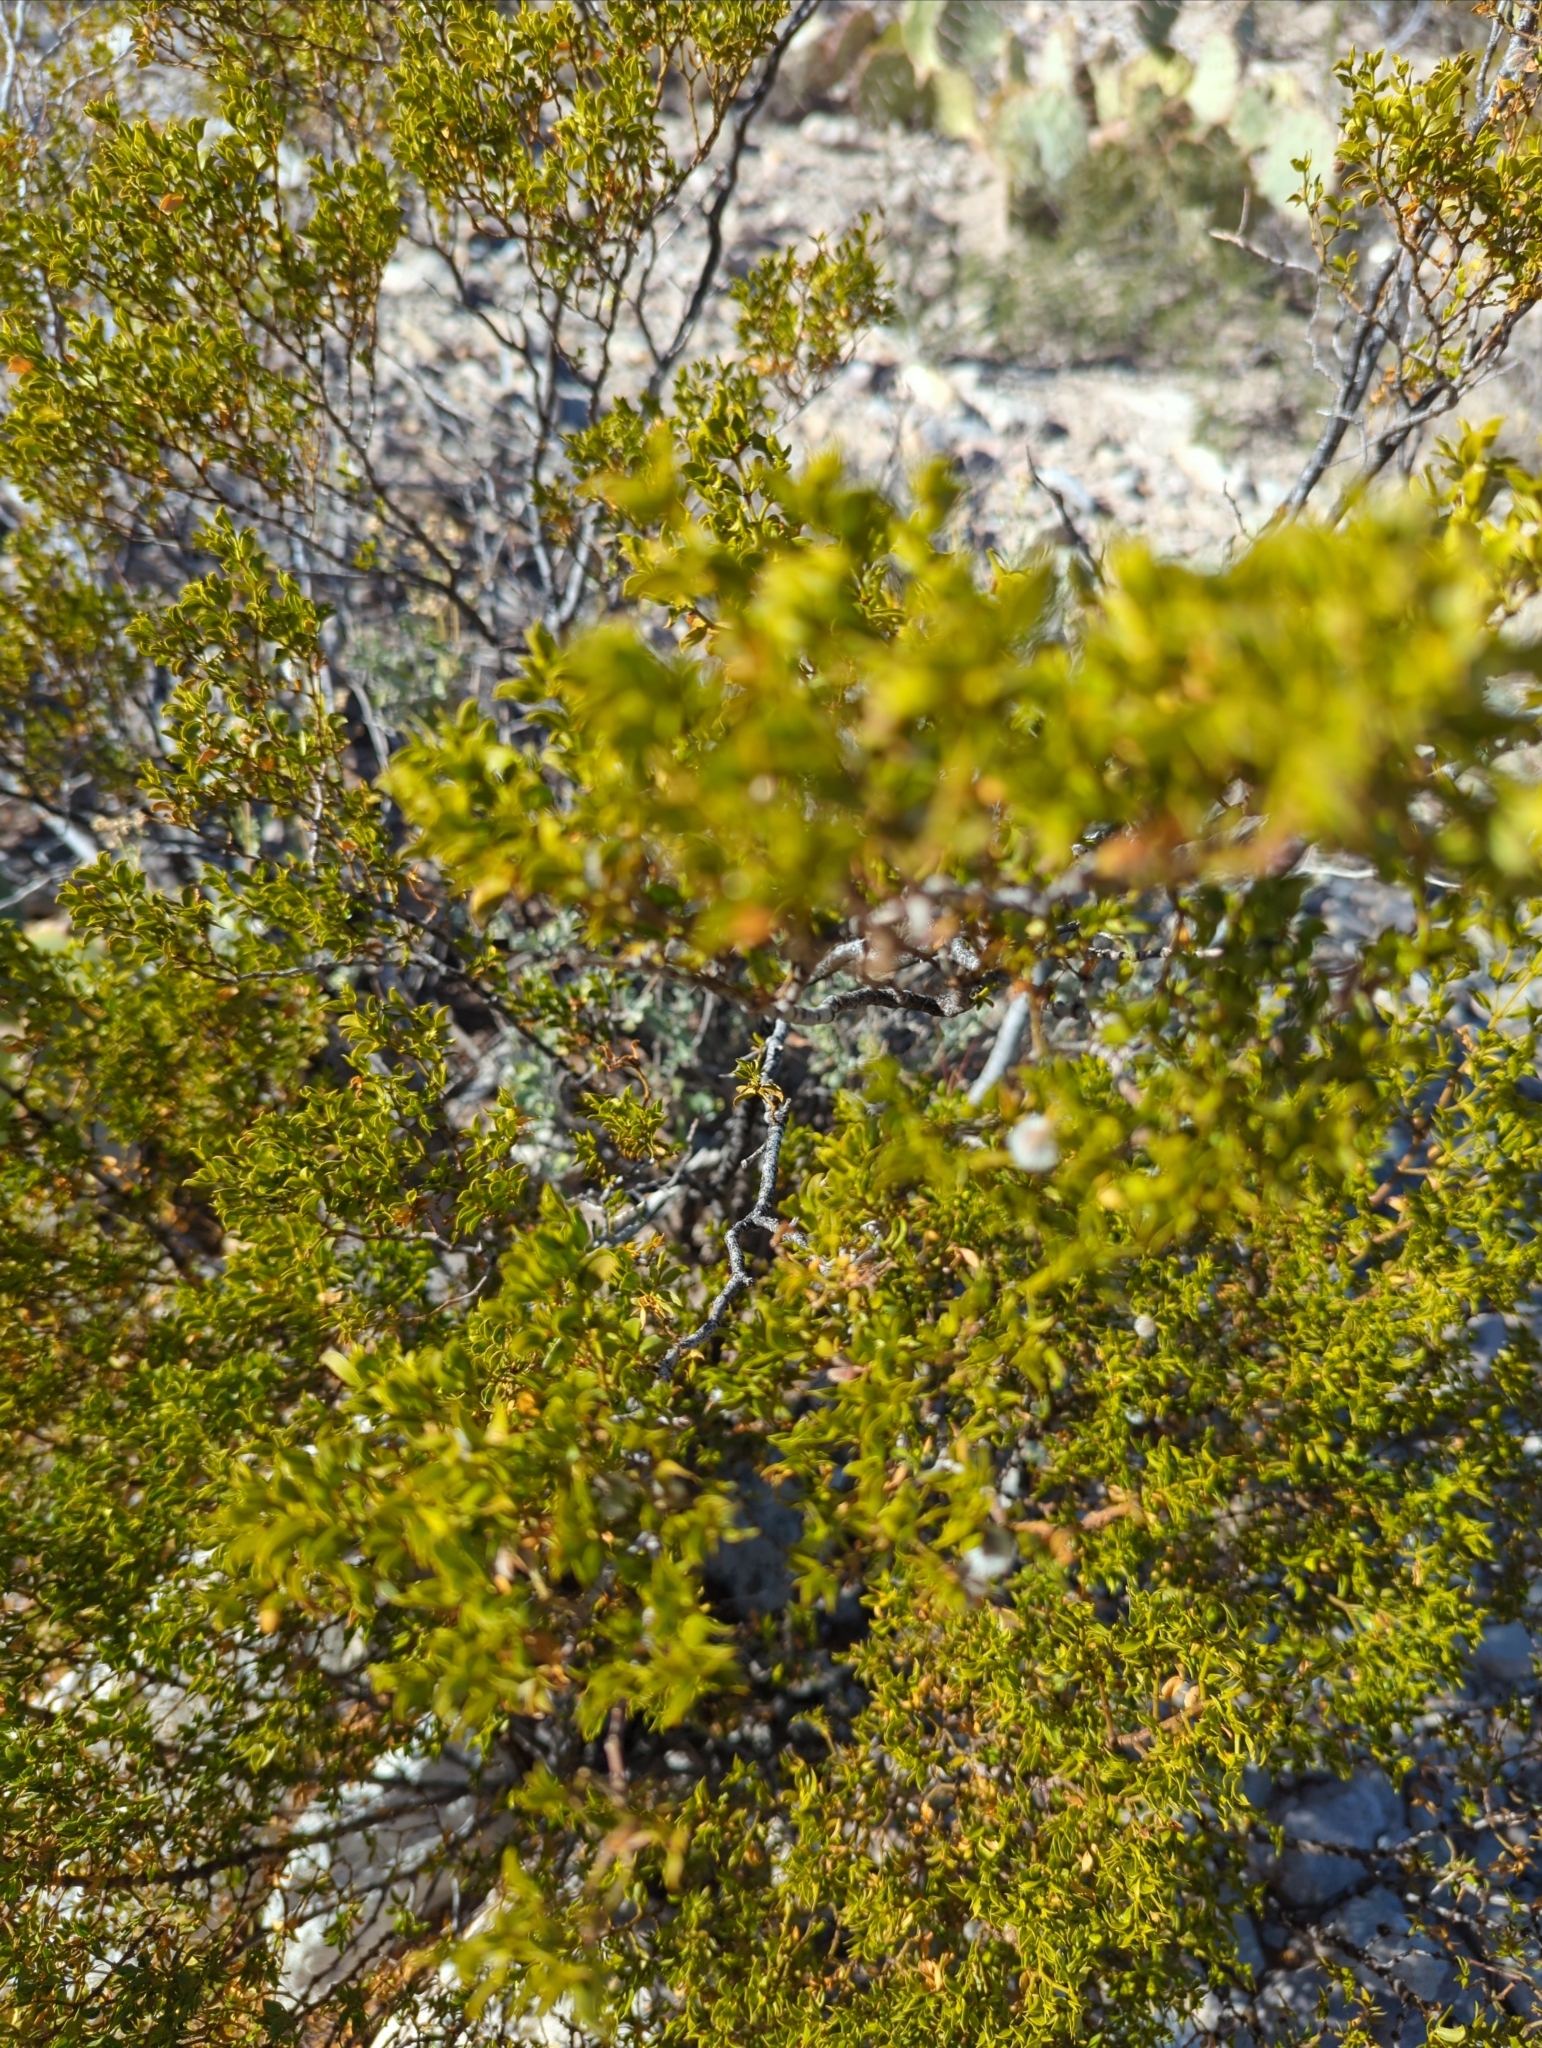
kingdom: Plantae
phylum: Tracheophyta
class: Magnoliopsida
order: Zygophyllales
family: Zygophyllaceae
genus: Larrea
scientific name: Larrea tridentata
